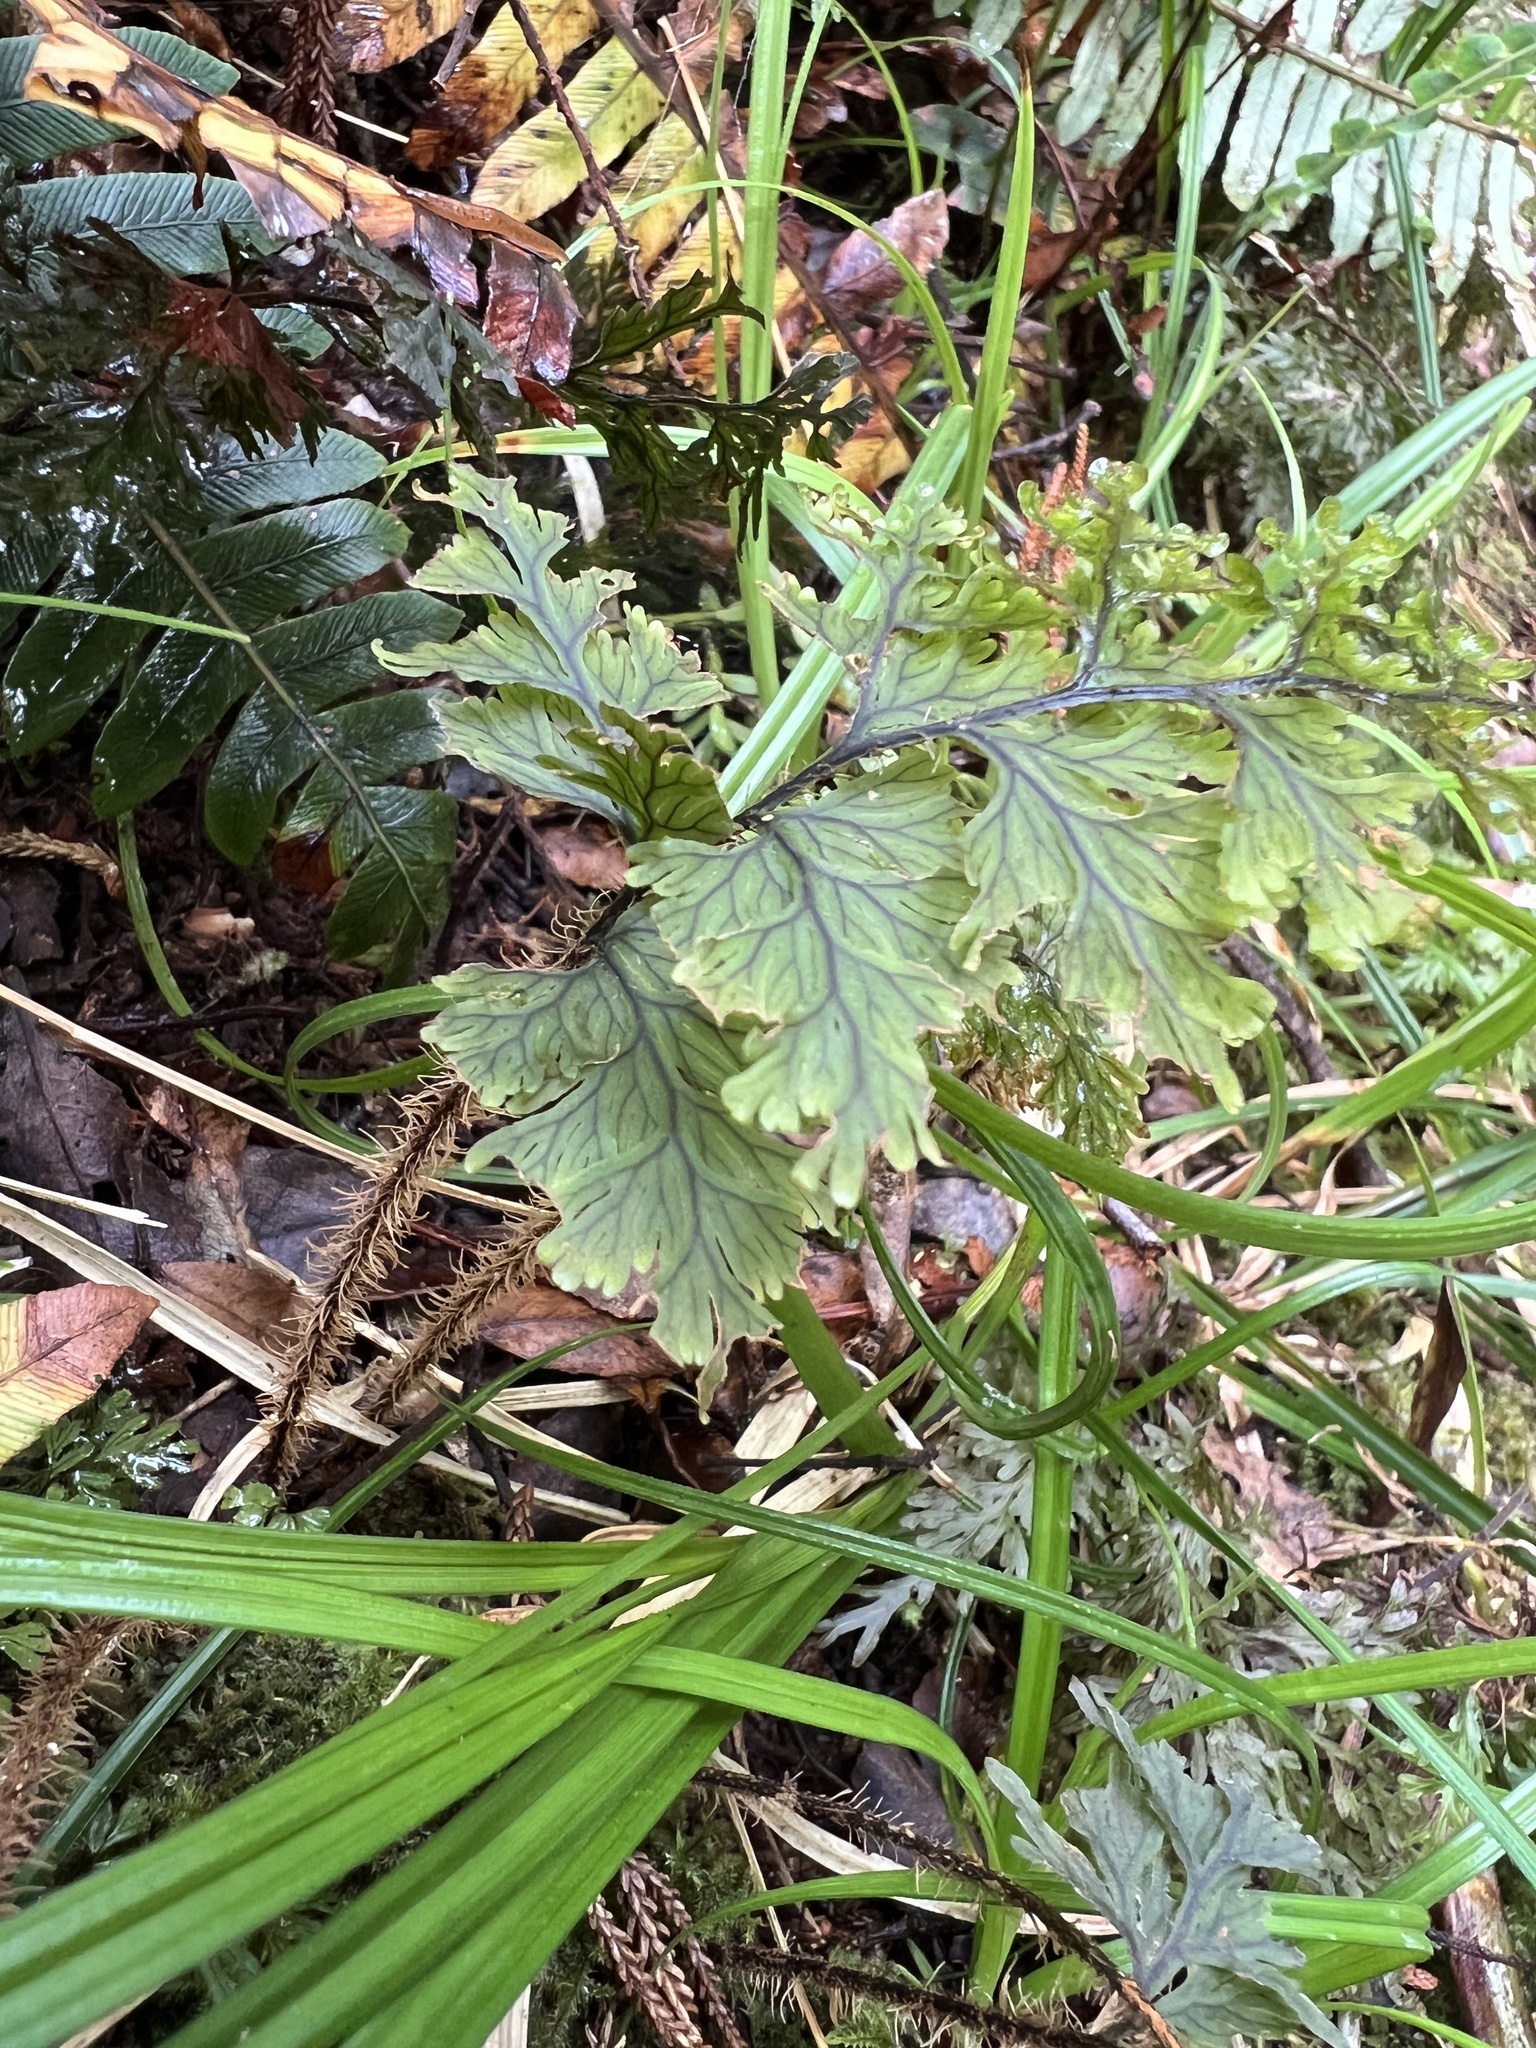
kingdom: Plantae
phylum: Tracheophyta
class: Polypodiopsida
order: Hymenophyllales
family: Hymenophyllaceae
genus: Hymenophyllum
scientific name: Hymenophyllum scabrum
